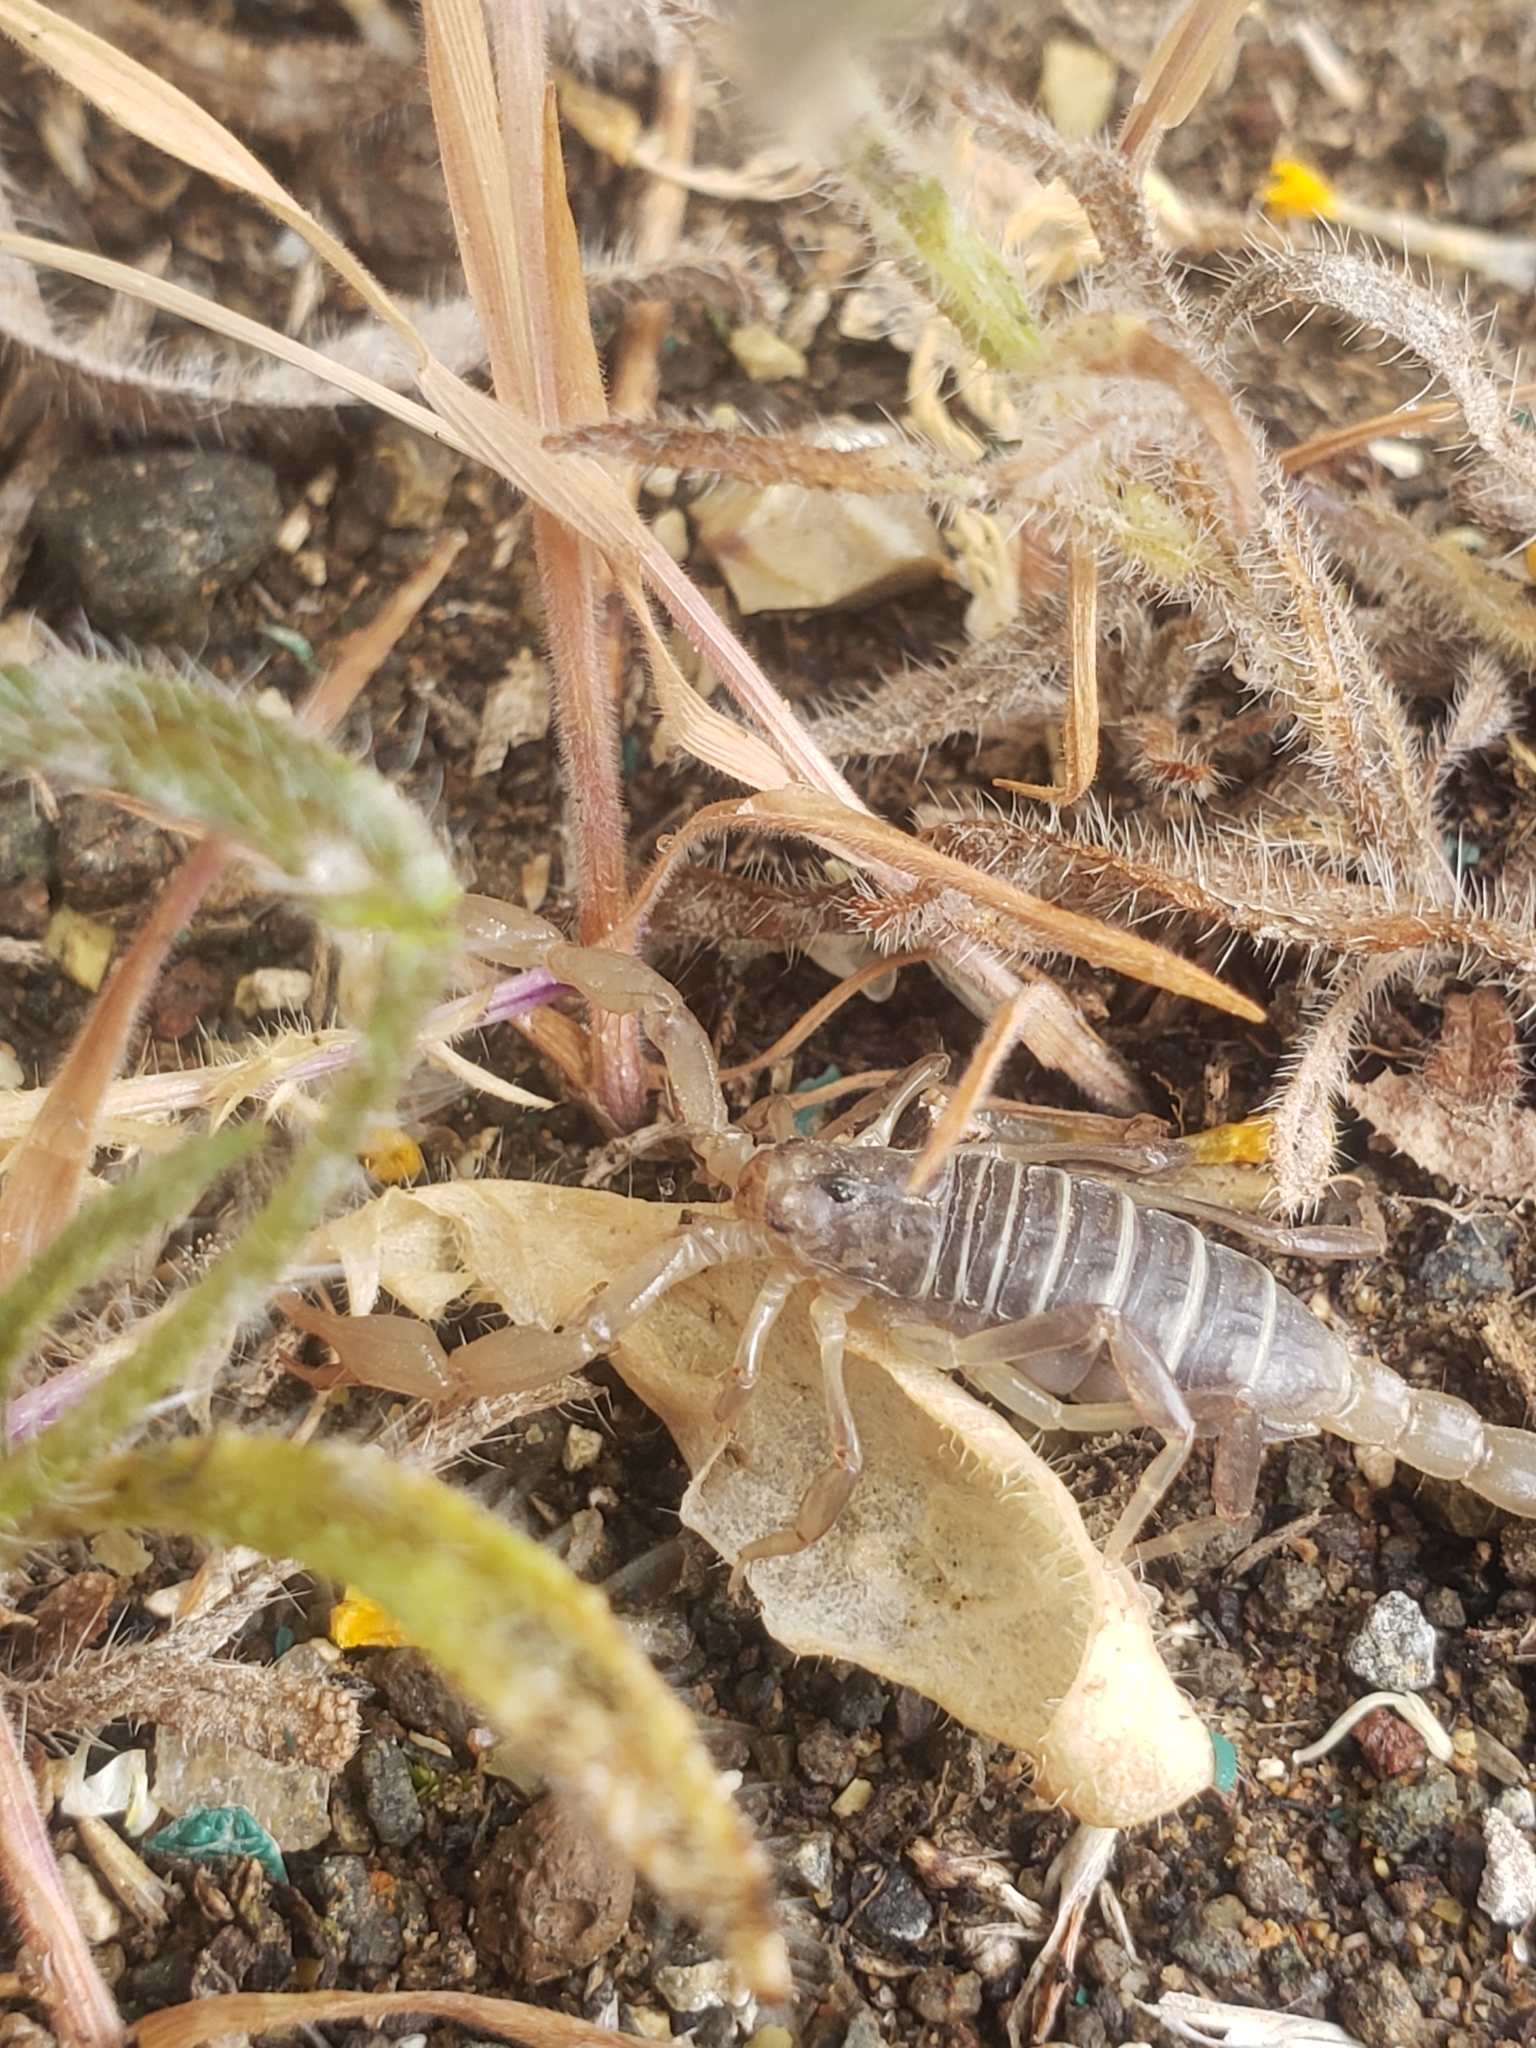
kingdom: Animalia
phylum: Arthropoda
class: Arachnida
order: Scorpiones
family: Vaejovidae
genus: Paruroctonus
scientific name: Paruroctonus boreus
